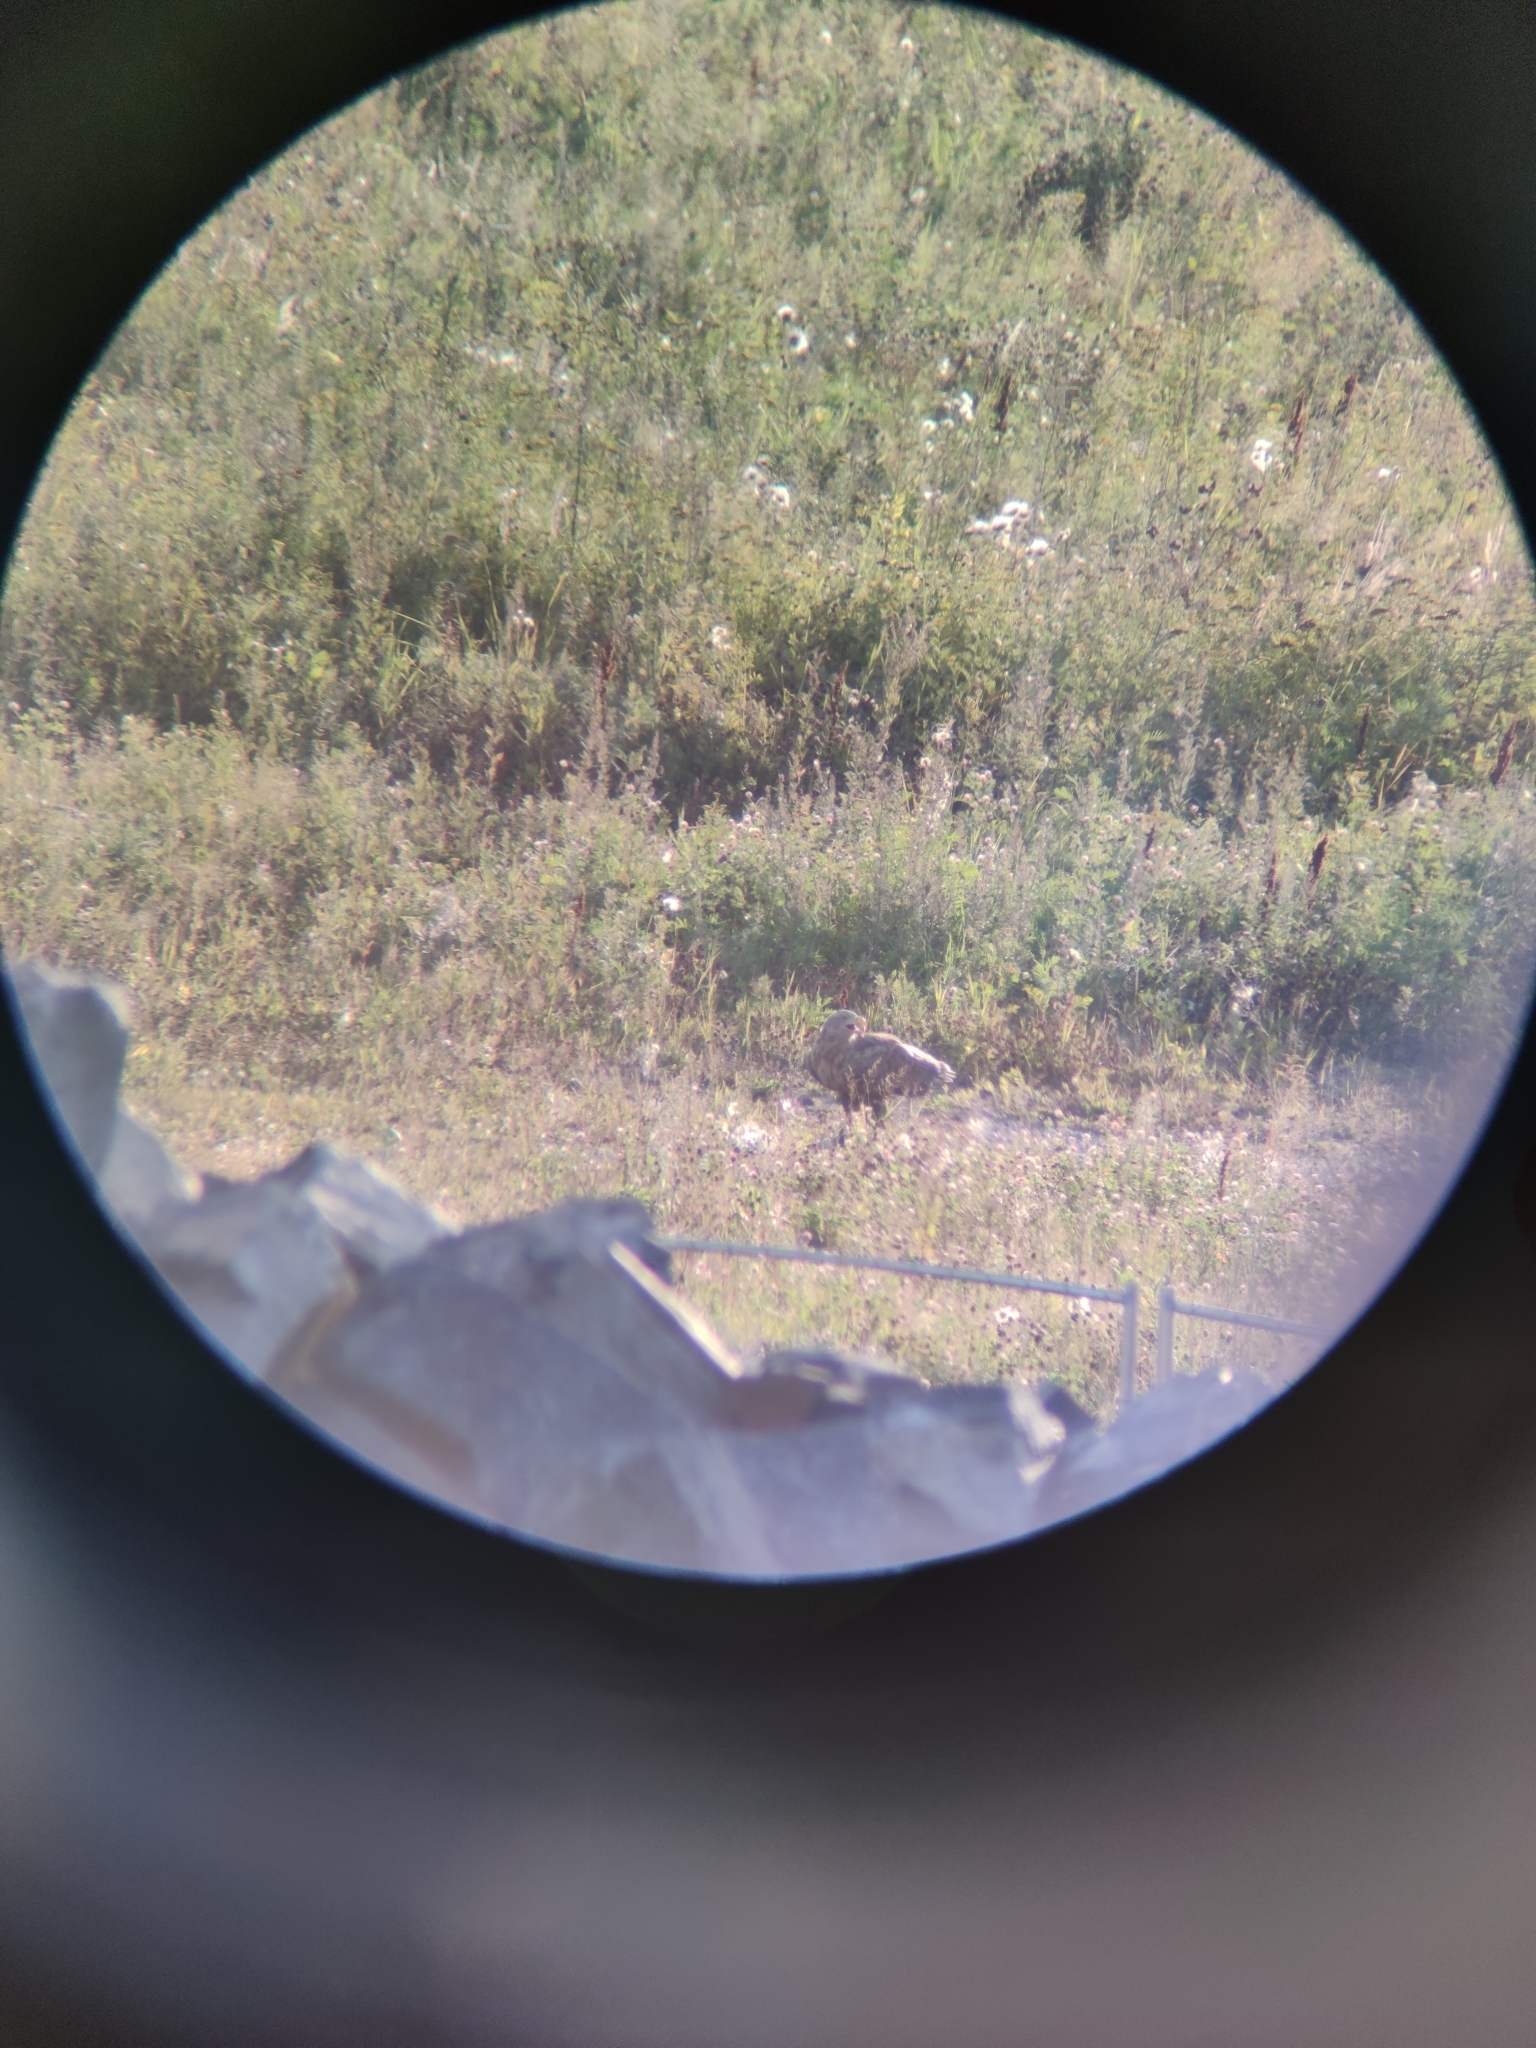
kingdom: Animalia
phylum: Chordata
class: Aves
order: Accipitriformes
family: Accipitridae
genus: Haliaeetus
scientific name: Haliaeetus albicilla
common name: White-tailed eagle
